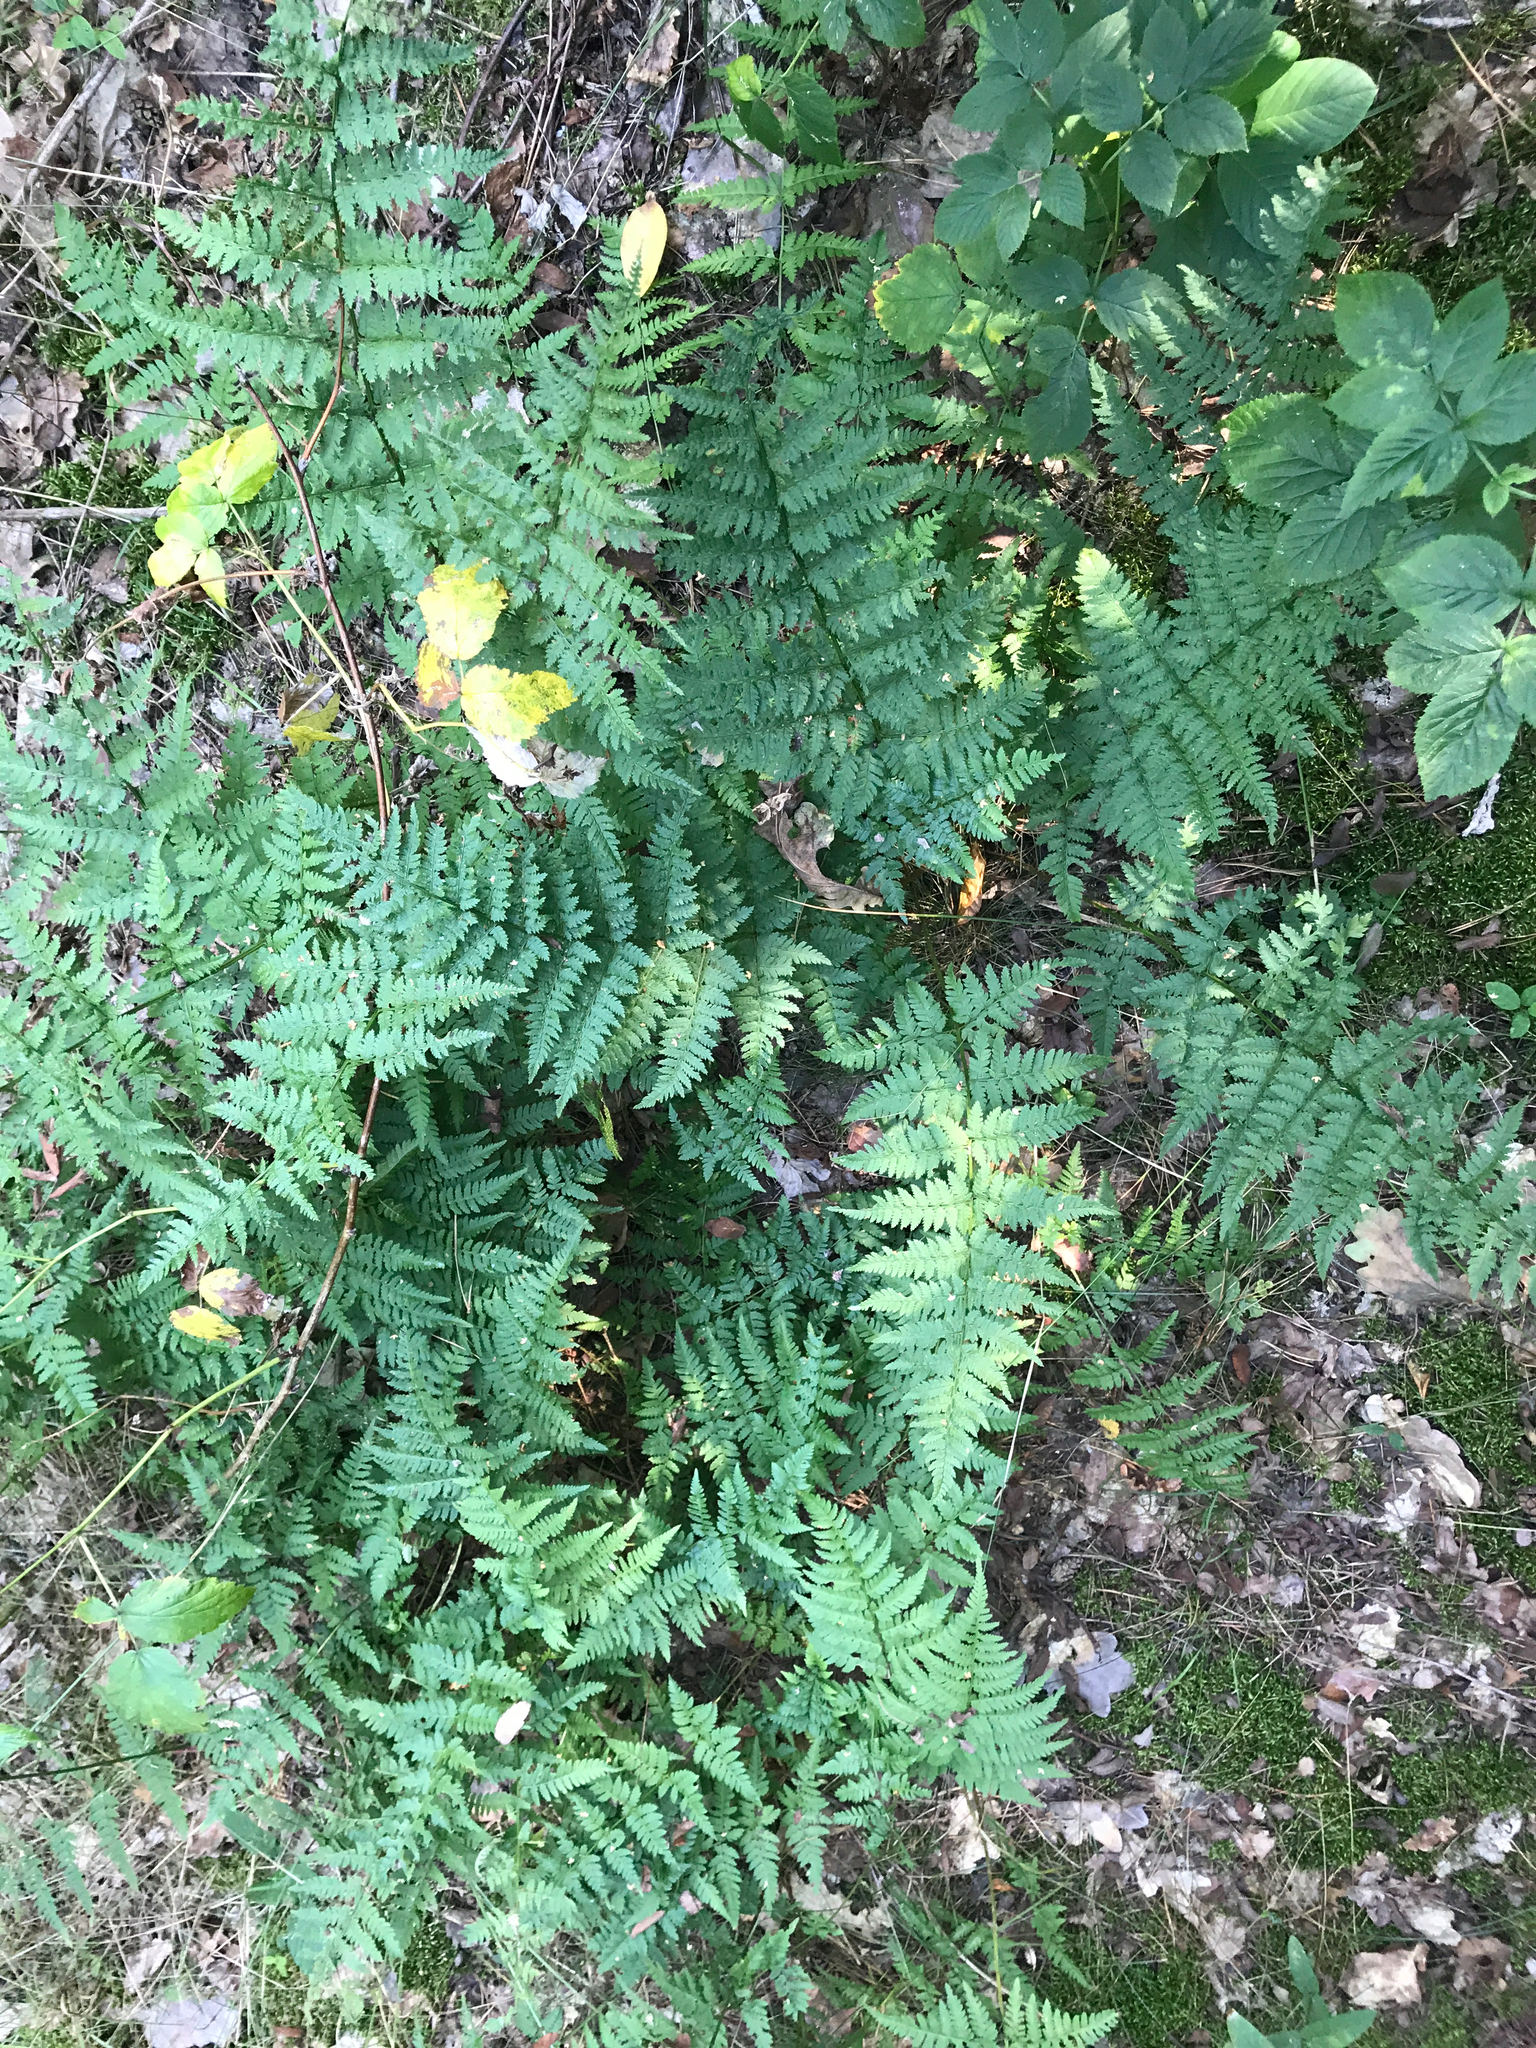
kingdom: Plantae
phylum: Tracheophyta
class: Polypodiopsida
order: Polypodiales
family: Dryopteridaceae
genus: Dryopteris
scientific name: Dryopteris carthusiana
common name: Narrow buckler-fern
